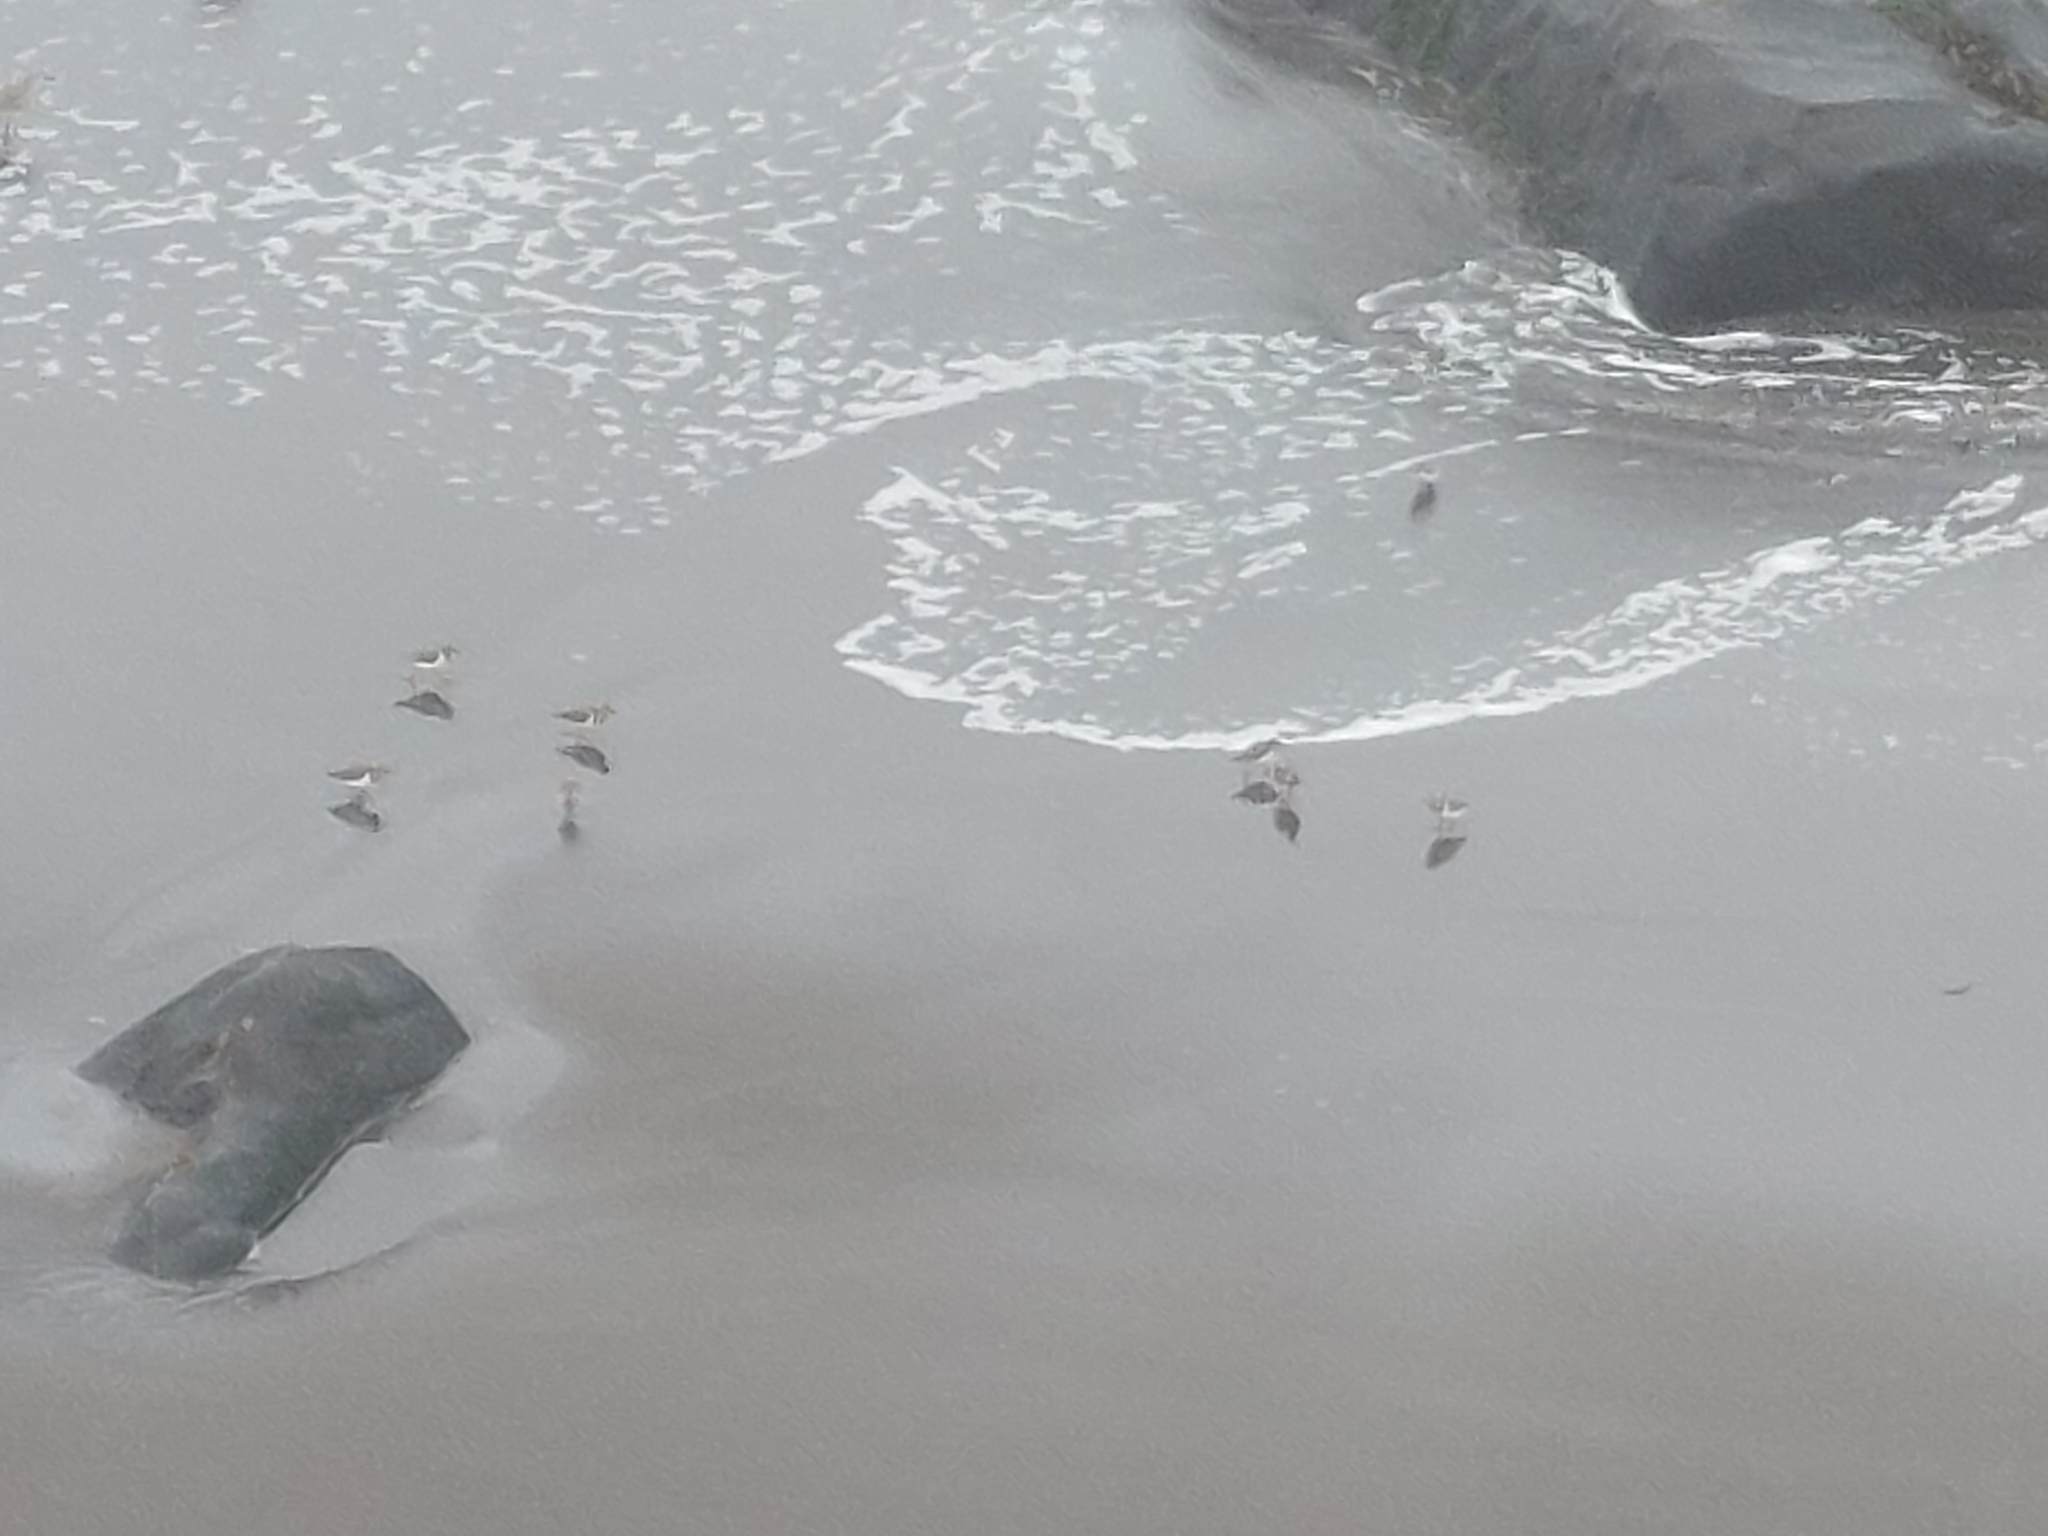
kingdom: Animalia
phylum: Chordata
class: Aves
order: Charadriiformes
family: Scolopacidae
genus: Arenaria
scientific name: Arenaria interpres
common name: Ruddy turnstone
